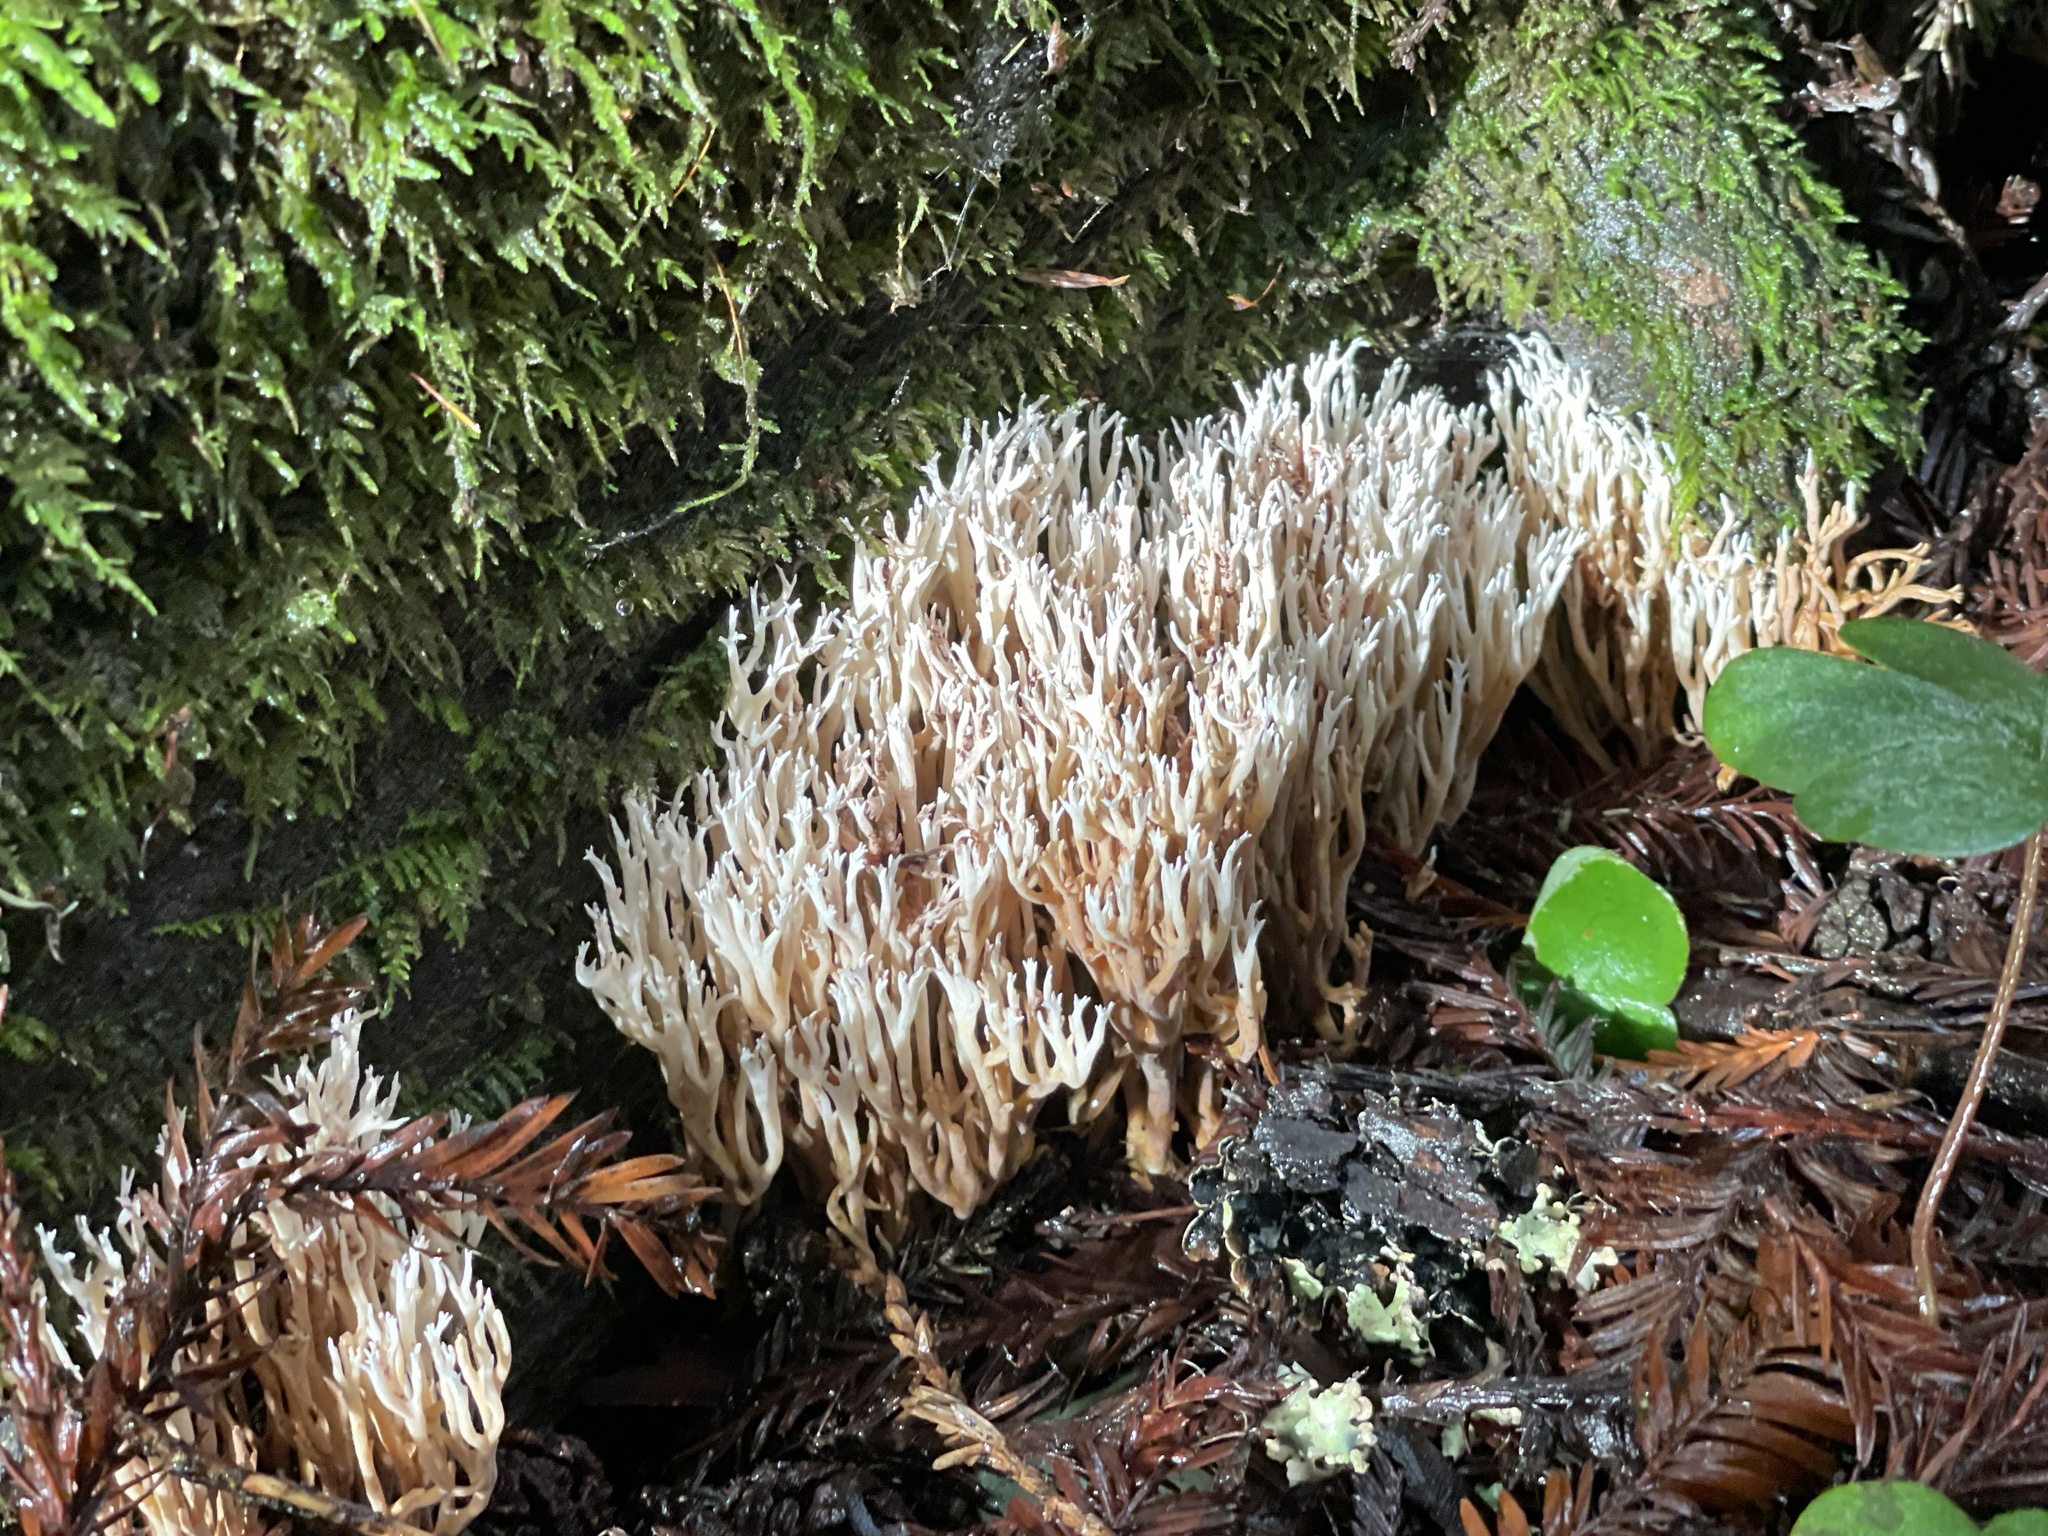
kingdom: Fungi
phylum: Basidiomycota
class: Agaricomycetes
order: Gomphales
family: Gomphaceae
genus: Ramaria
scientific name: Ramaria pinicola
